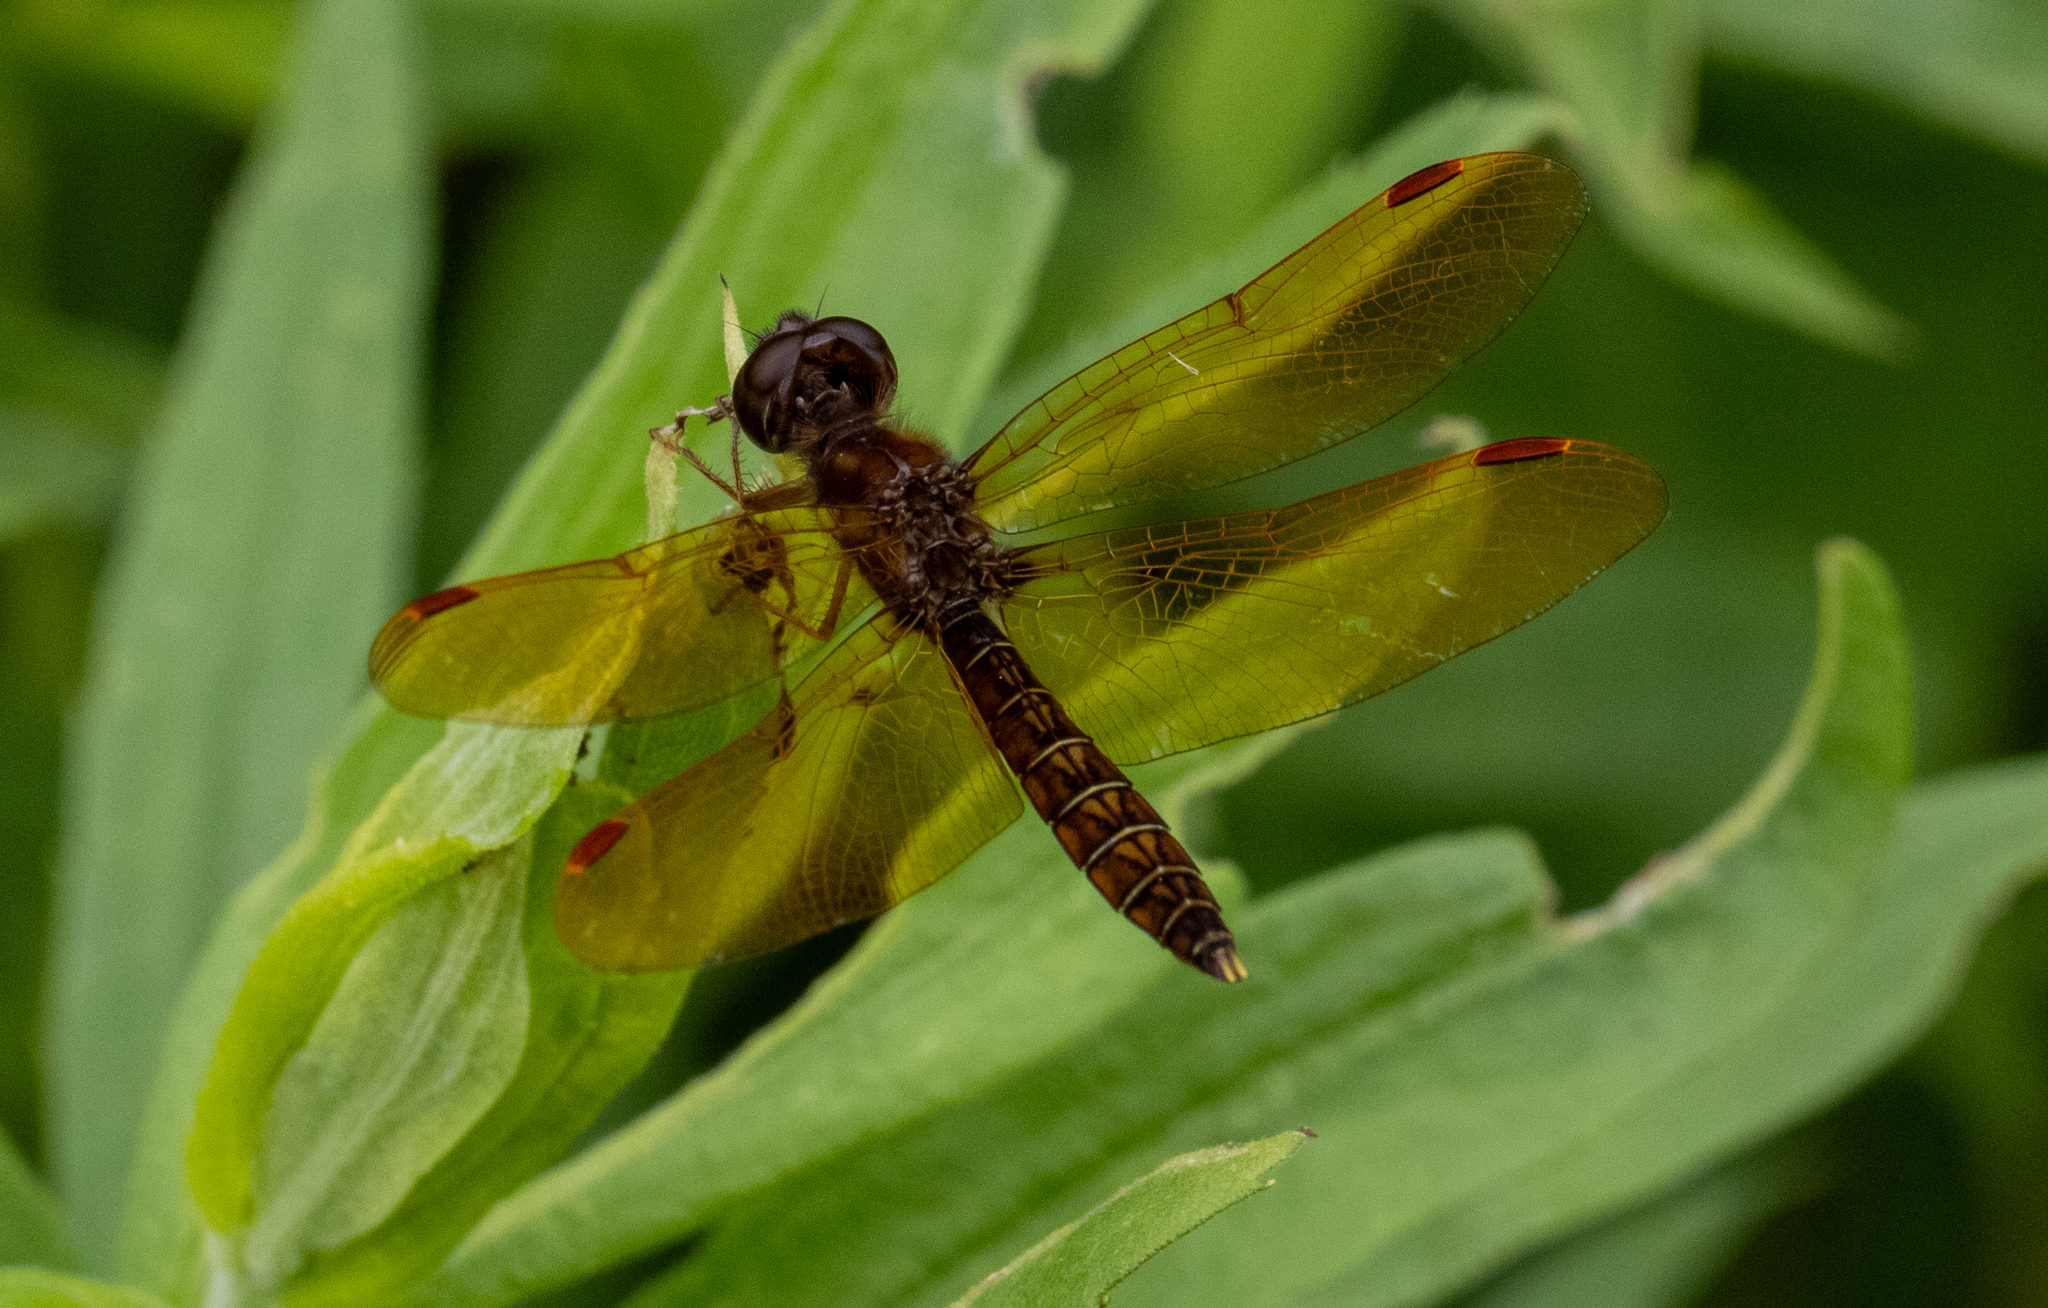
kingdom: Animalia
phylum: Arthropoda
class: Insecta
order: Odonata
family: Libellulidae
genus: Perithemis
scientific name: Perithemis tenera
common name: Eastern amberwing
